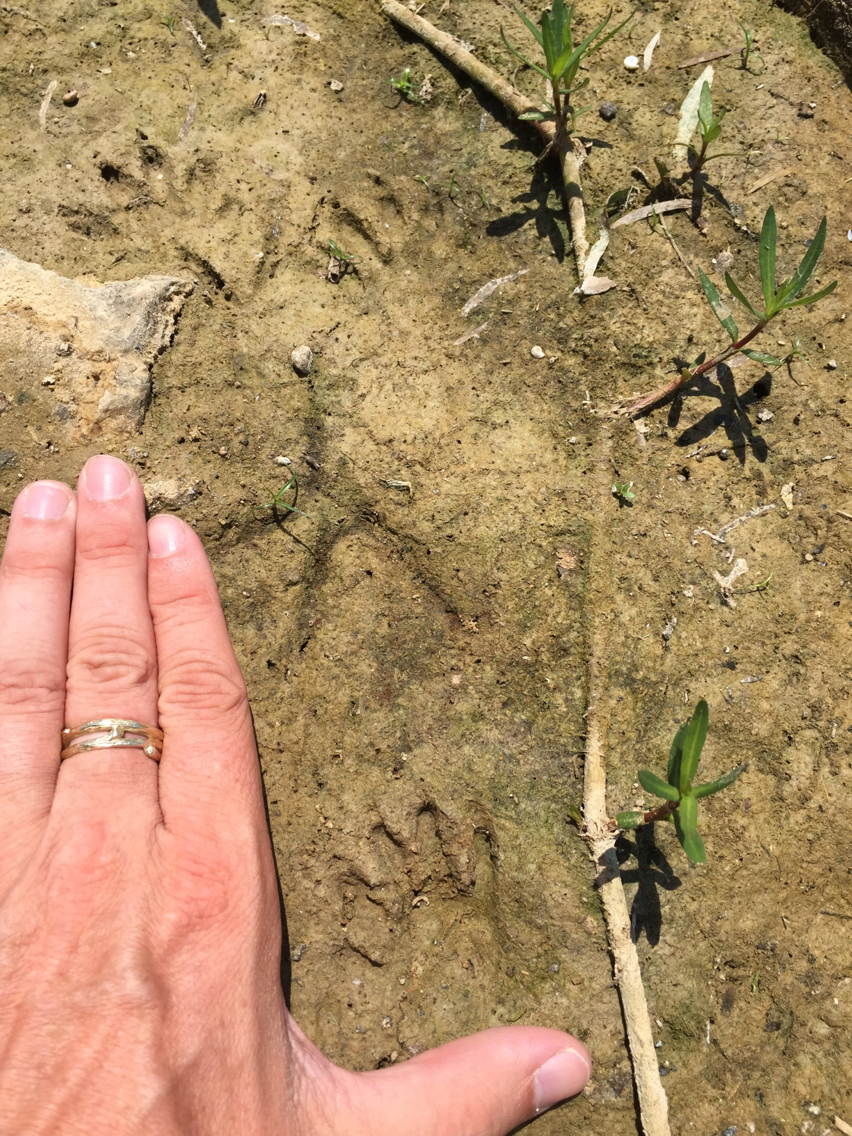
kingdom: Animalia
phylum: Chordata
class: Mammalia
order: Carnivora
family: Procyonidae
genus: Procyon
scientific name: Procyon lotor
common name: Raccoon
